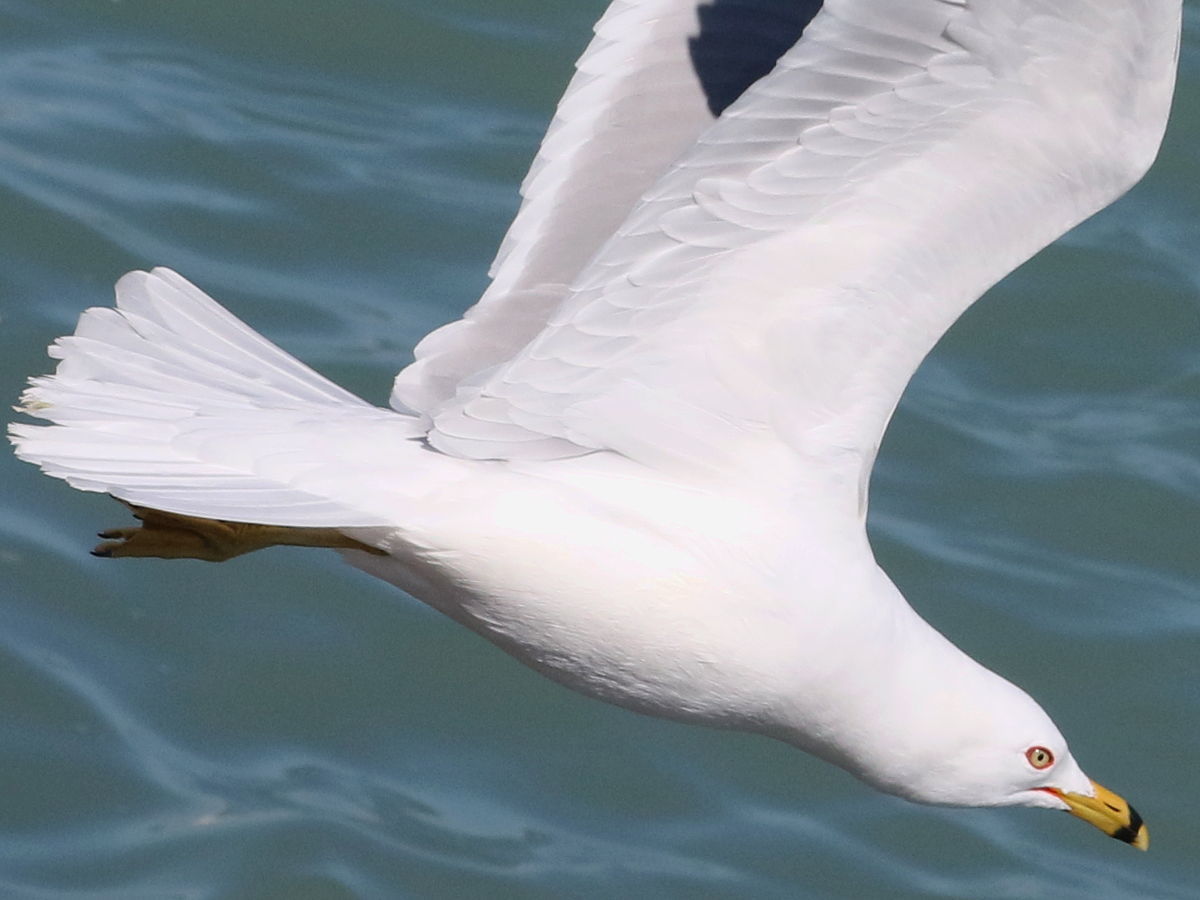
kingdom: Animalia
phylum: Chordata
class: Aves
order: Charadriiformes
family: Laridae
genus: Larus
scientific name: Larus delawarensis
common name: Ring-billed gull
